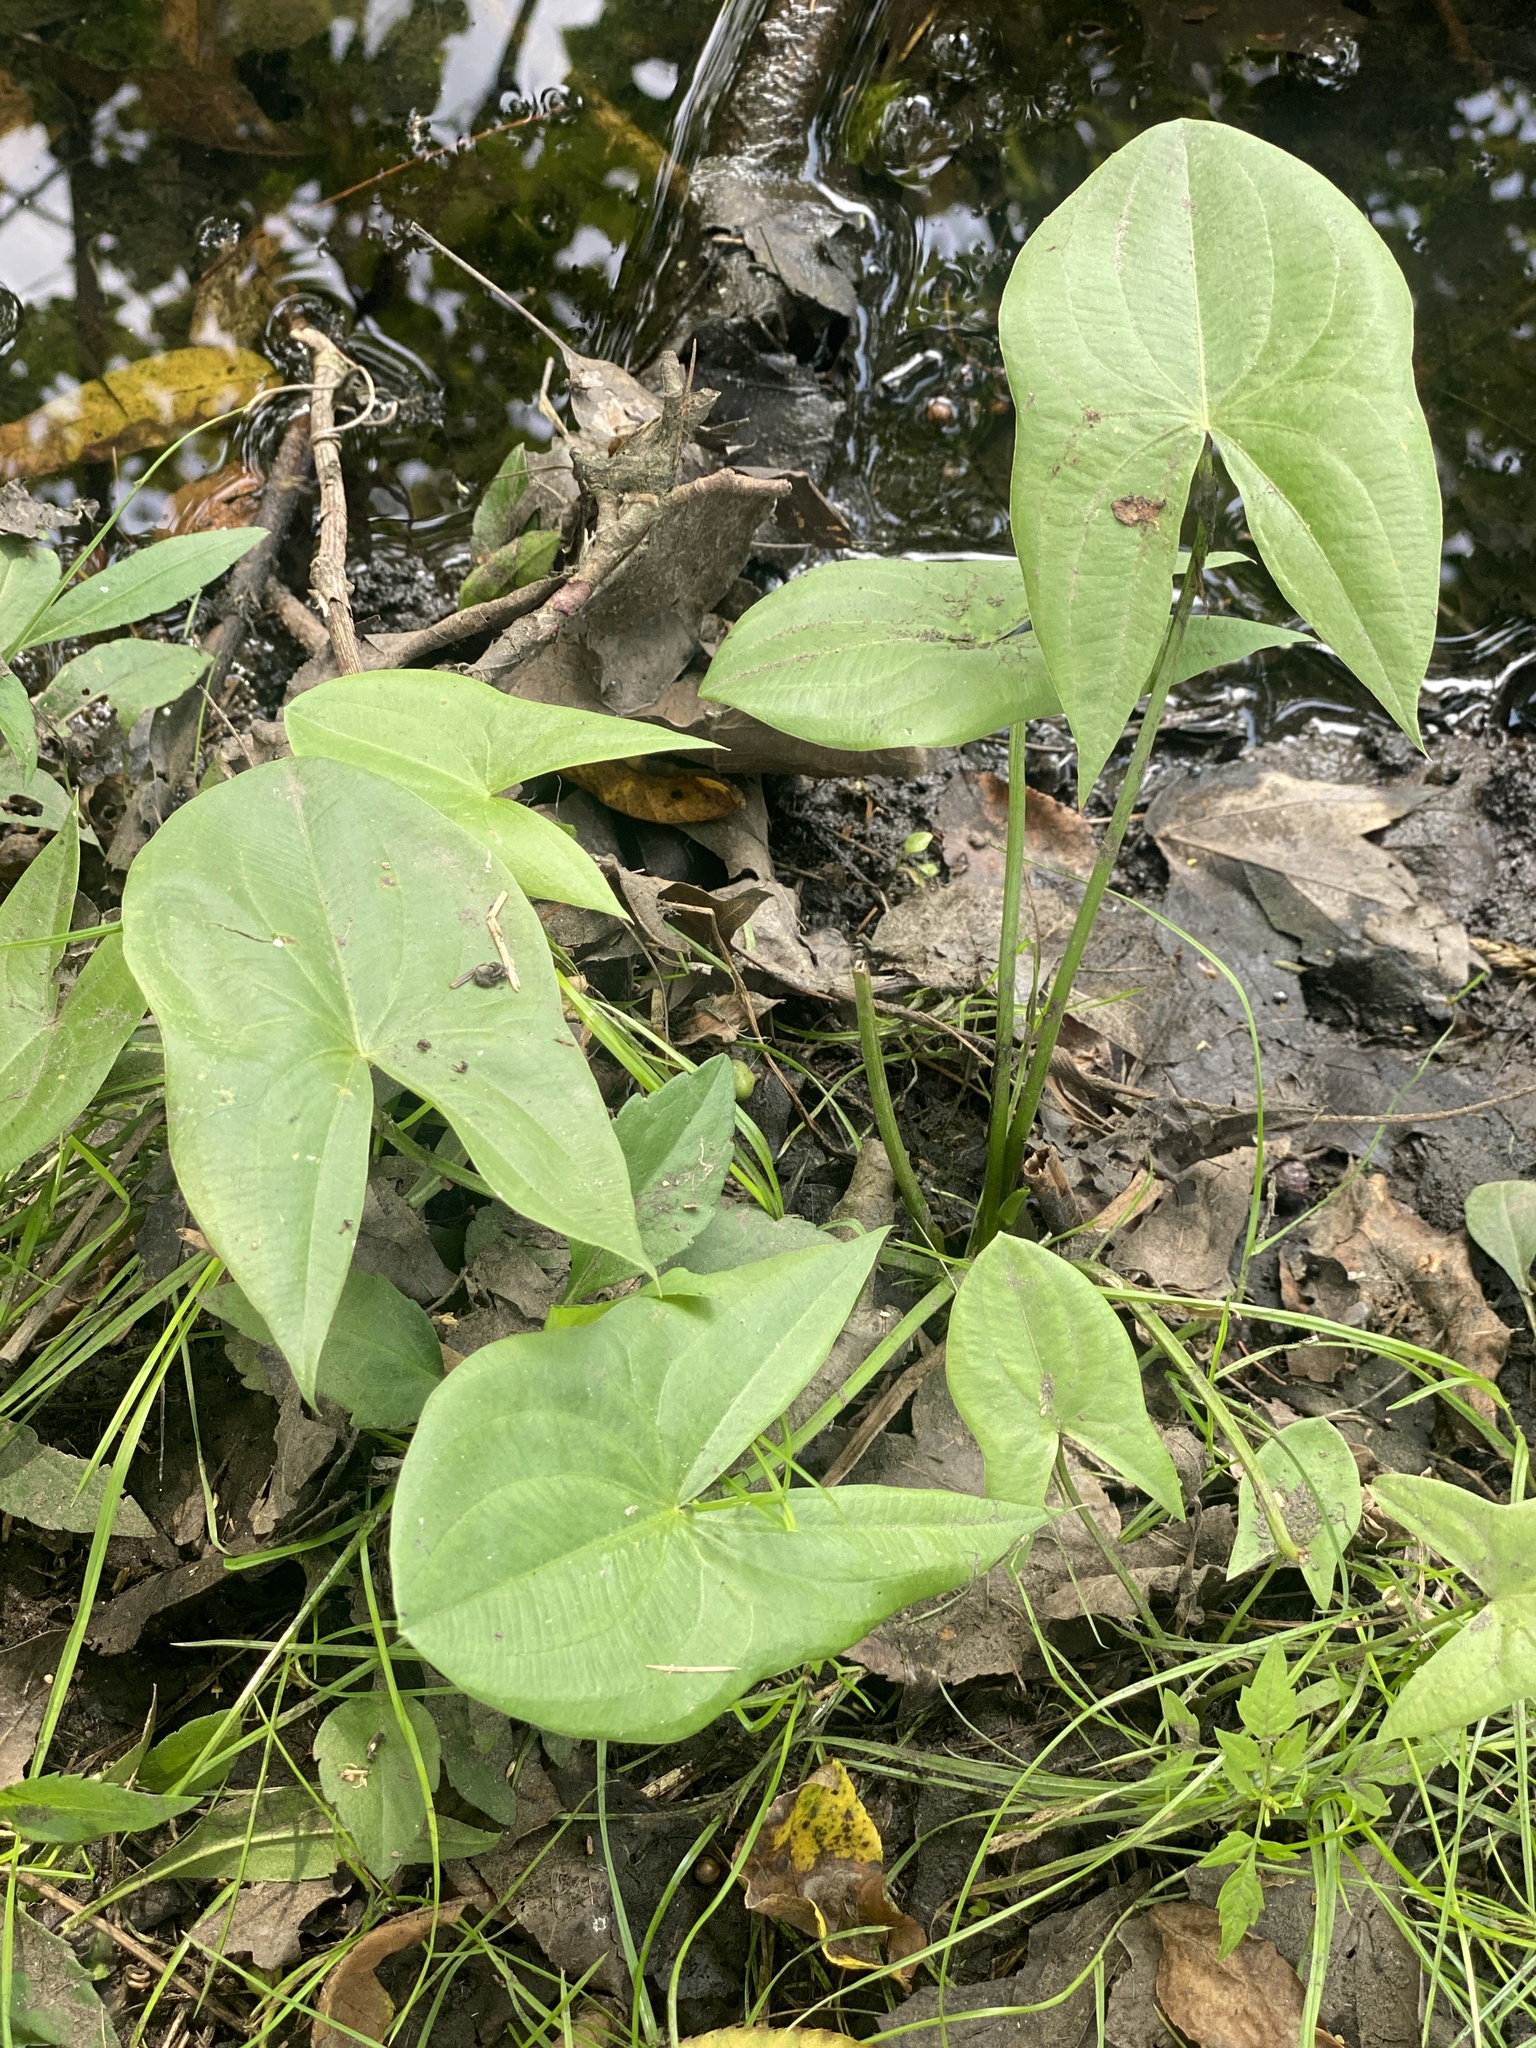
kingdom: Plantae
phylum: Tracheophyta
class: Liliopsida
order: Alismatales
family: Alismataceae
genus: Sagittaria
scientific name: Sagittaria latifolia
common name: Duck-potato
